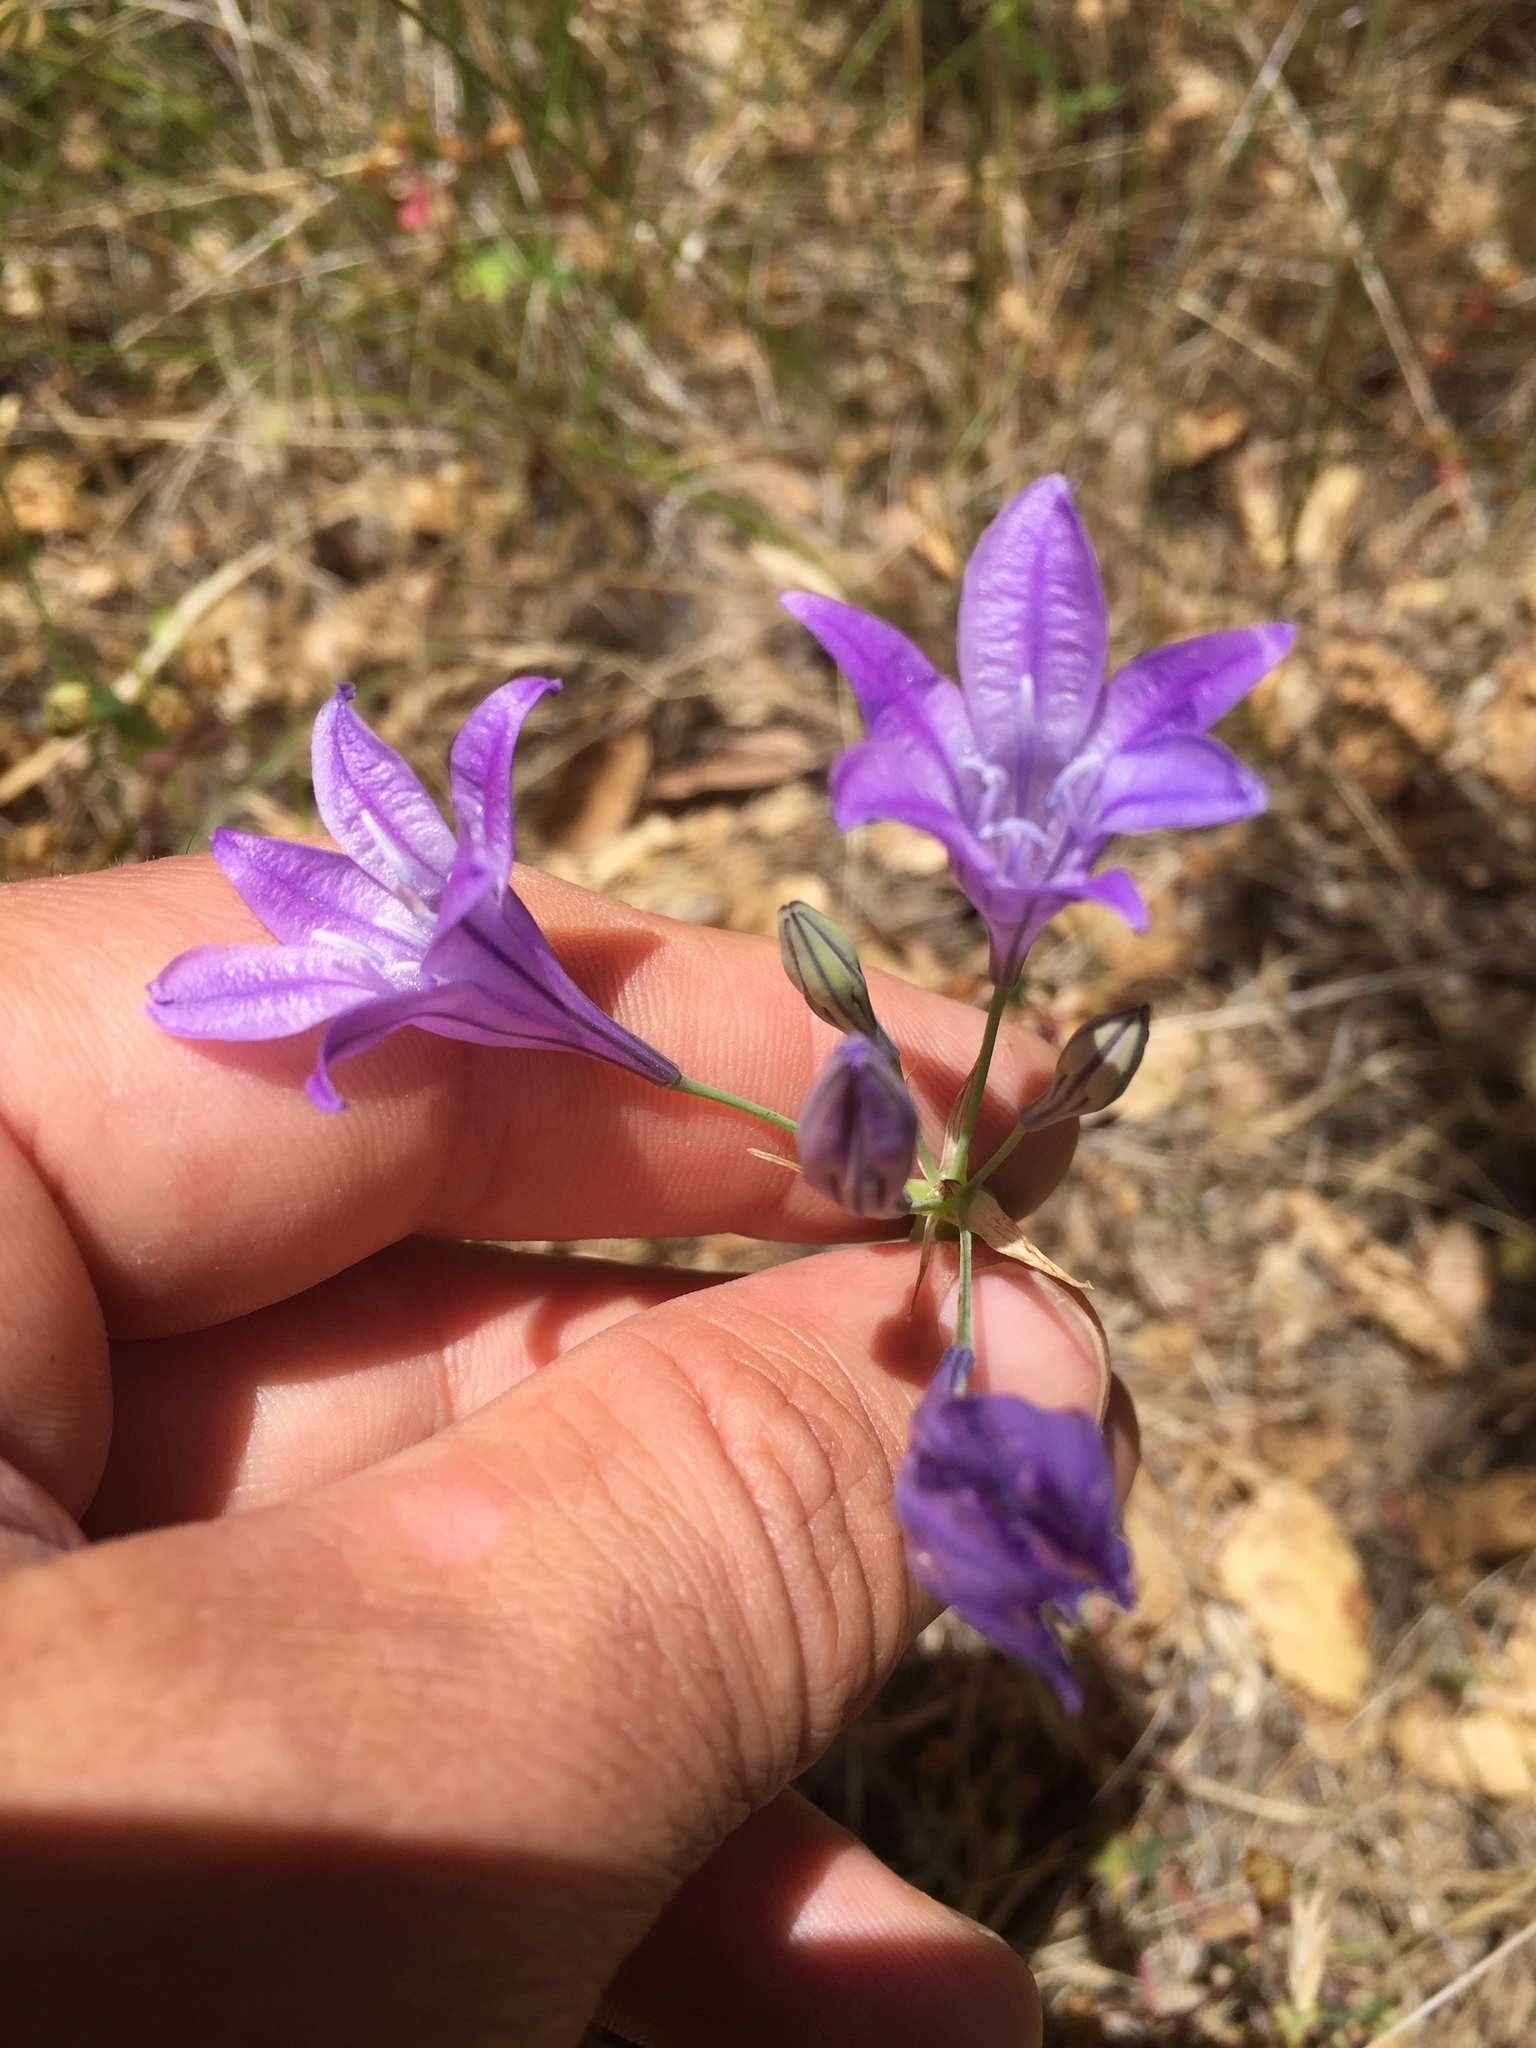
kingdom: Plantae
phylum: Tracheophyta
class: Liliopsida
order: Asparagales
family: Asparagaceae
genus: Triteleia
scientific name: Triteleia laxa
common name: Triplet-lily
